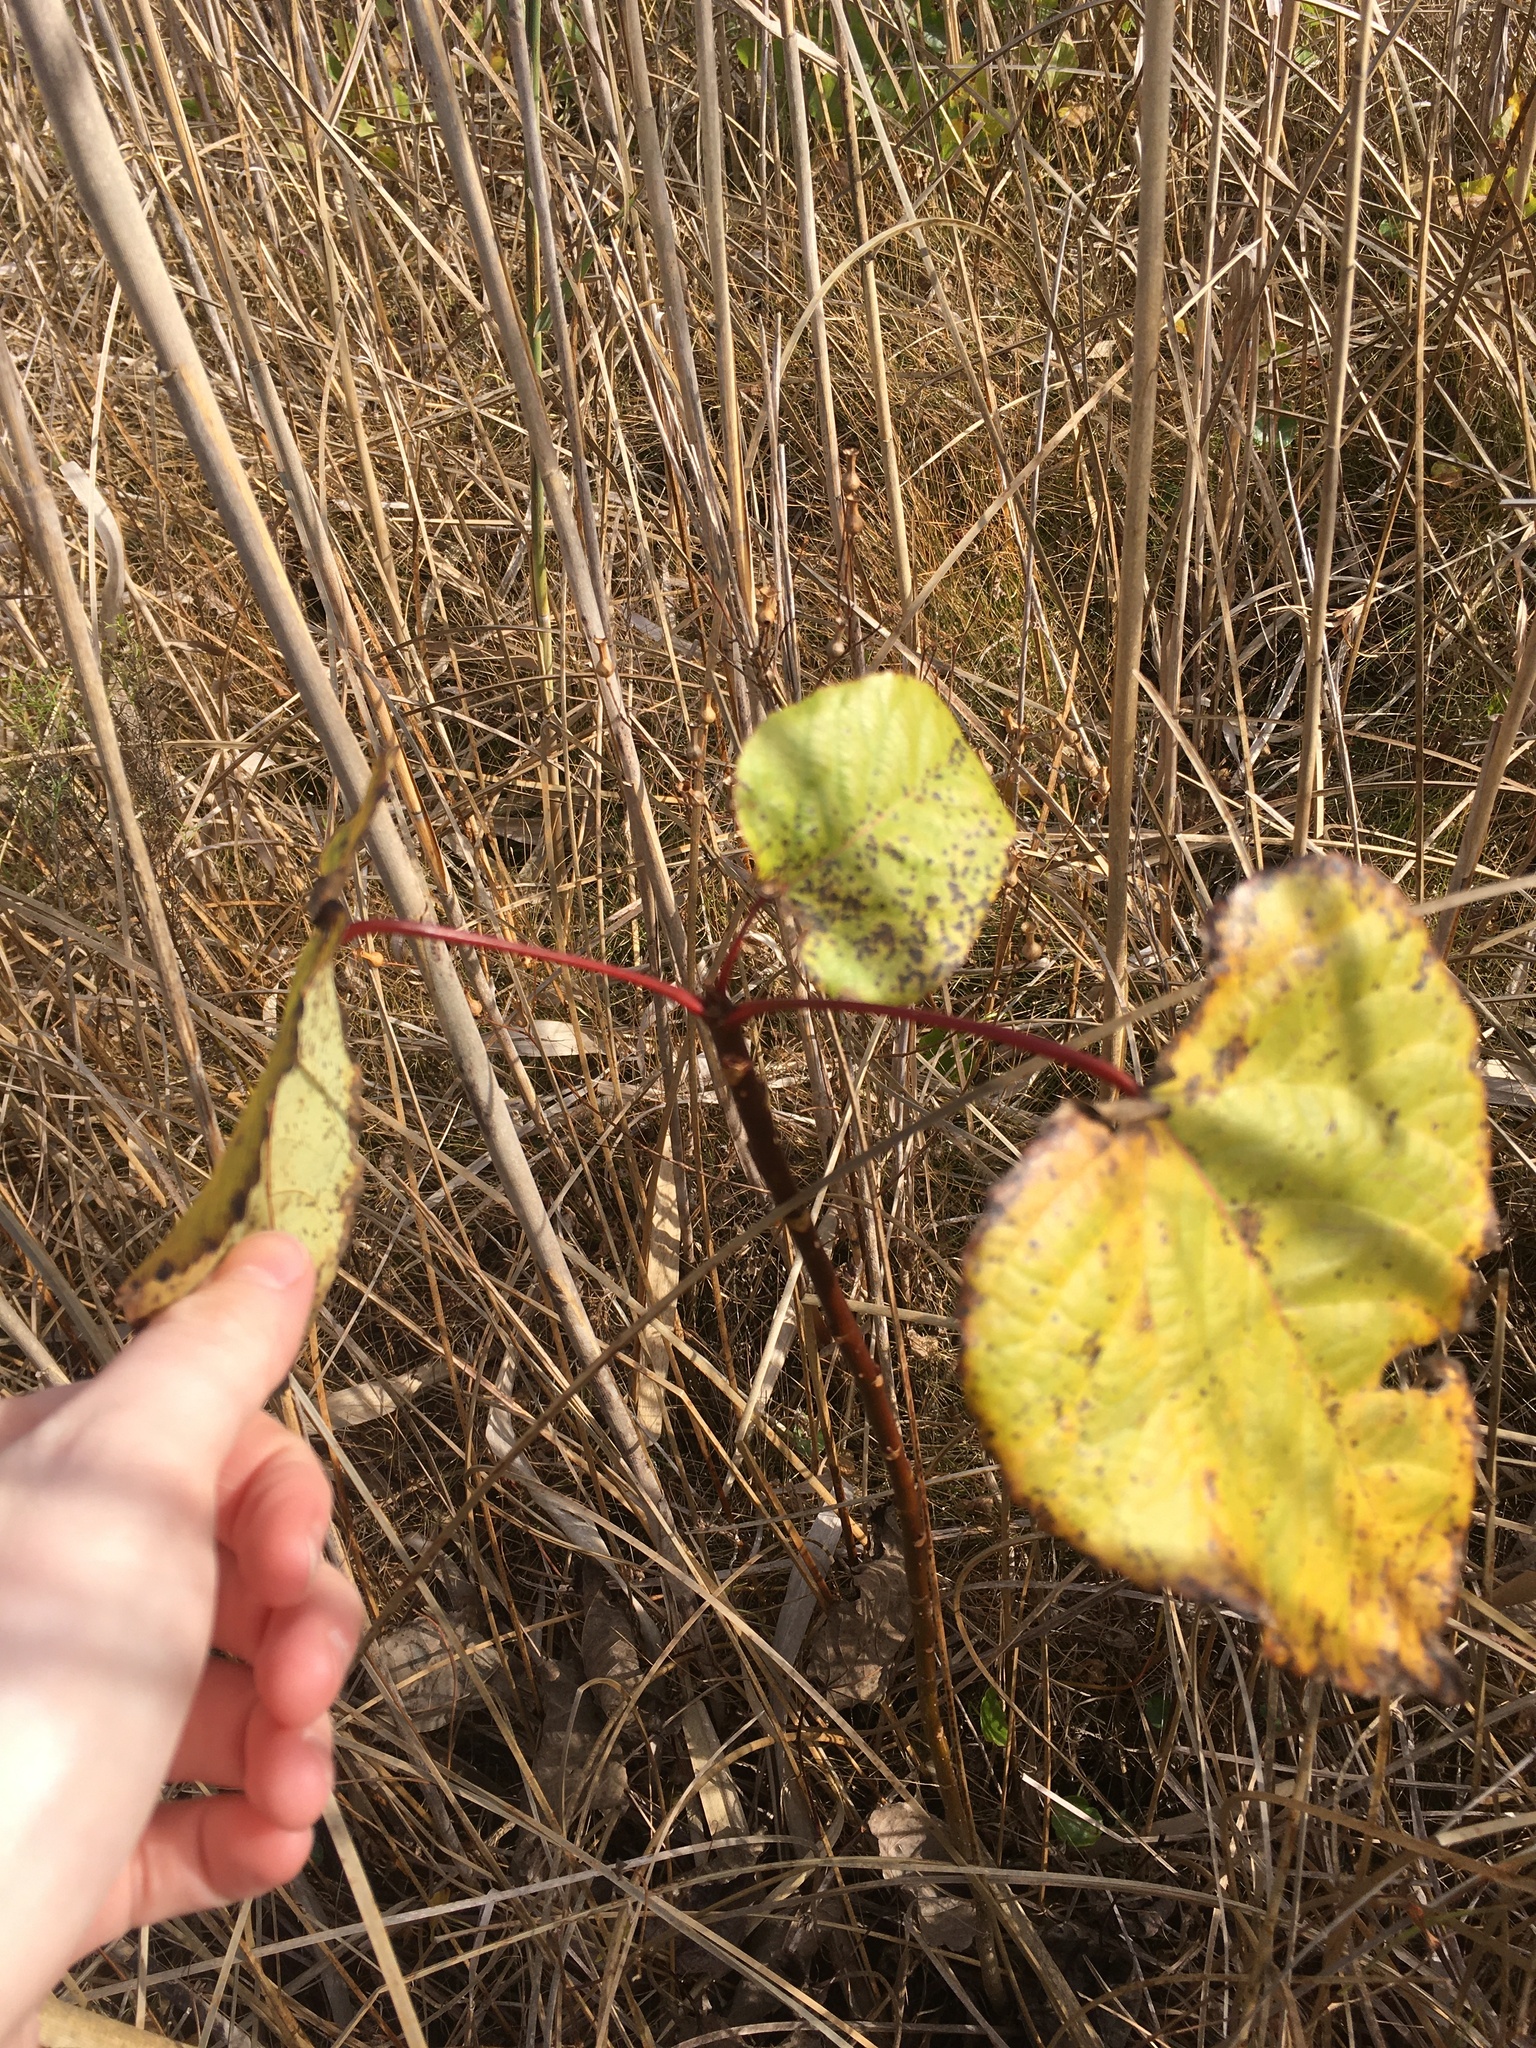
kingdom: Plantae
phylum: Tracheophyta
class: Magnoliopsida
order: Malpighiales
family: Salicaceae
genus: Populus
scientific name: Populus heterophylla
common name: Downy poplar
